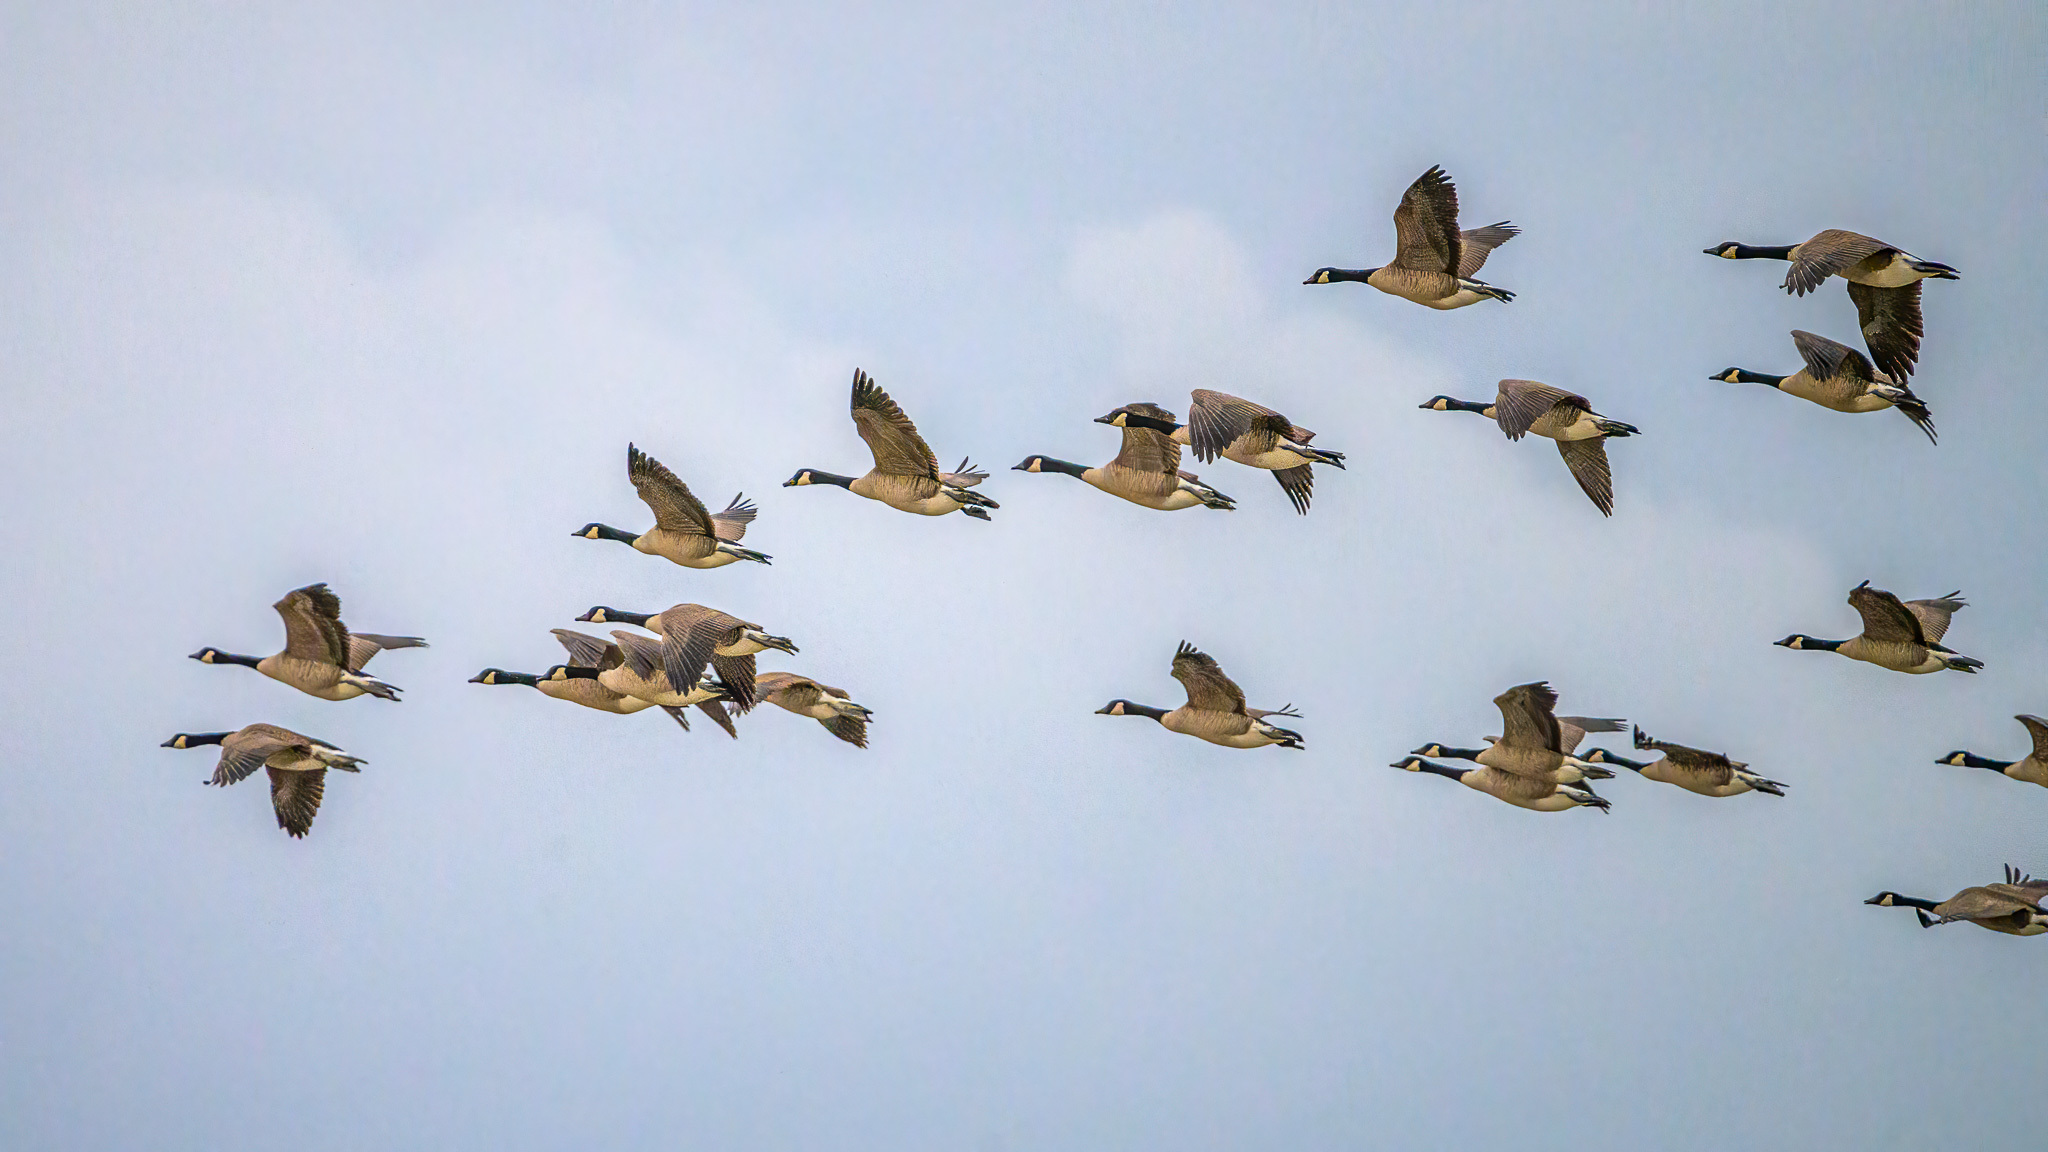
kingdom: Animalia
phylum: Chordata
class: Aves
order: Anseriformes
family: Anatidae
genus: Branta
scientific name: Branta canadensis
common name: Canada goose
